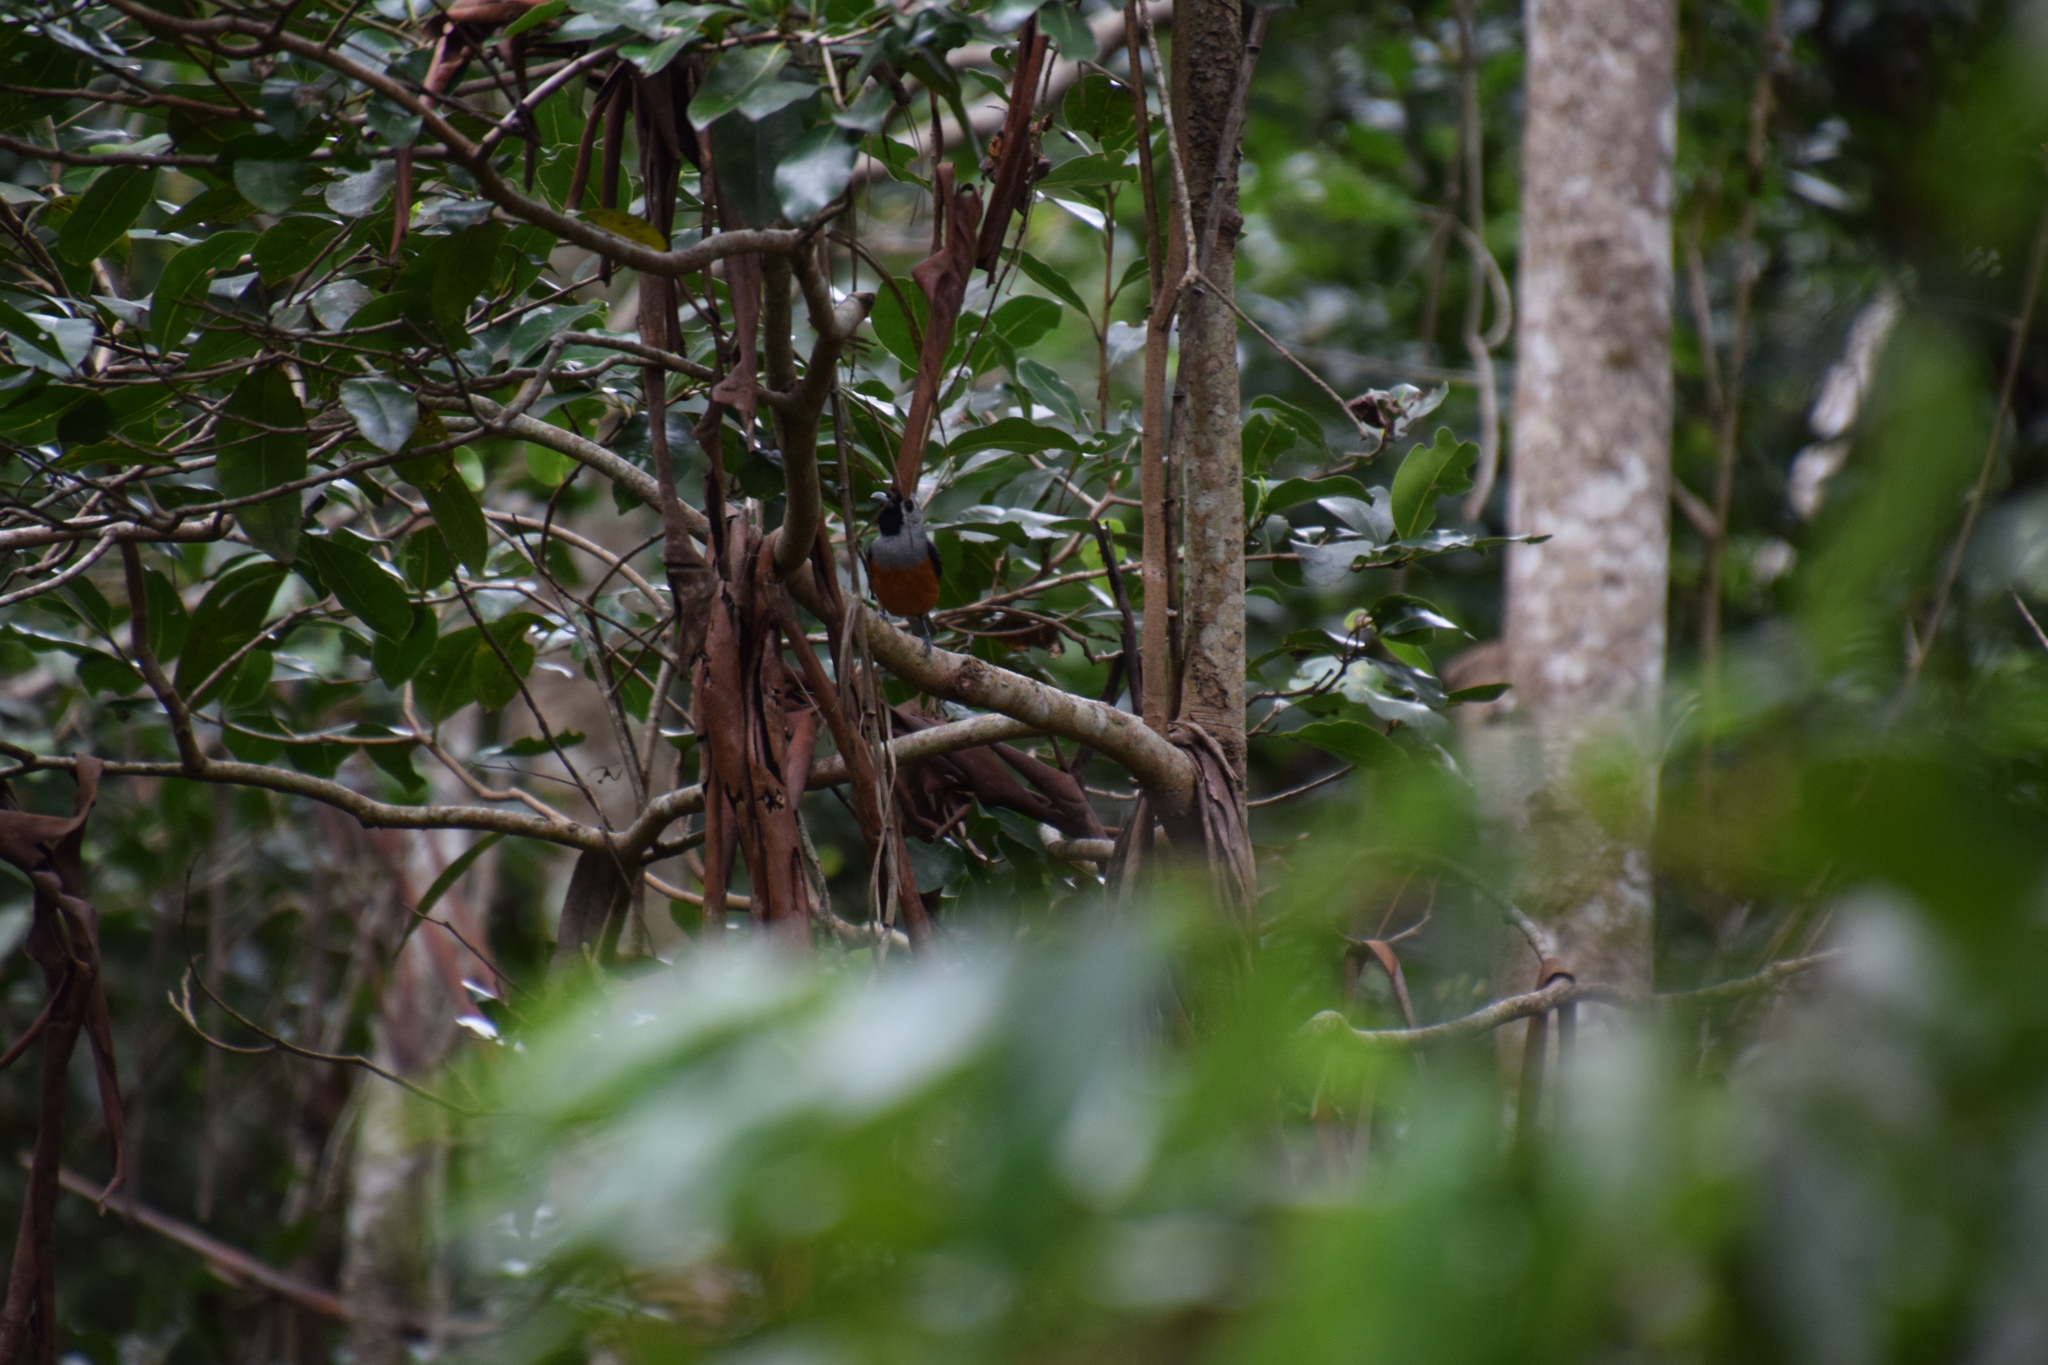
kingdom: Animalia
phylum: Chordata
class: Aves
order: Passeriformes
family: Monarchidae
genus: Monarcha
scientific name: Monarcha melanopsis
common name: Black-faced monarch
